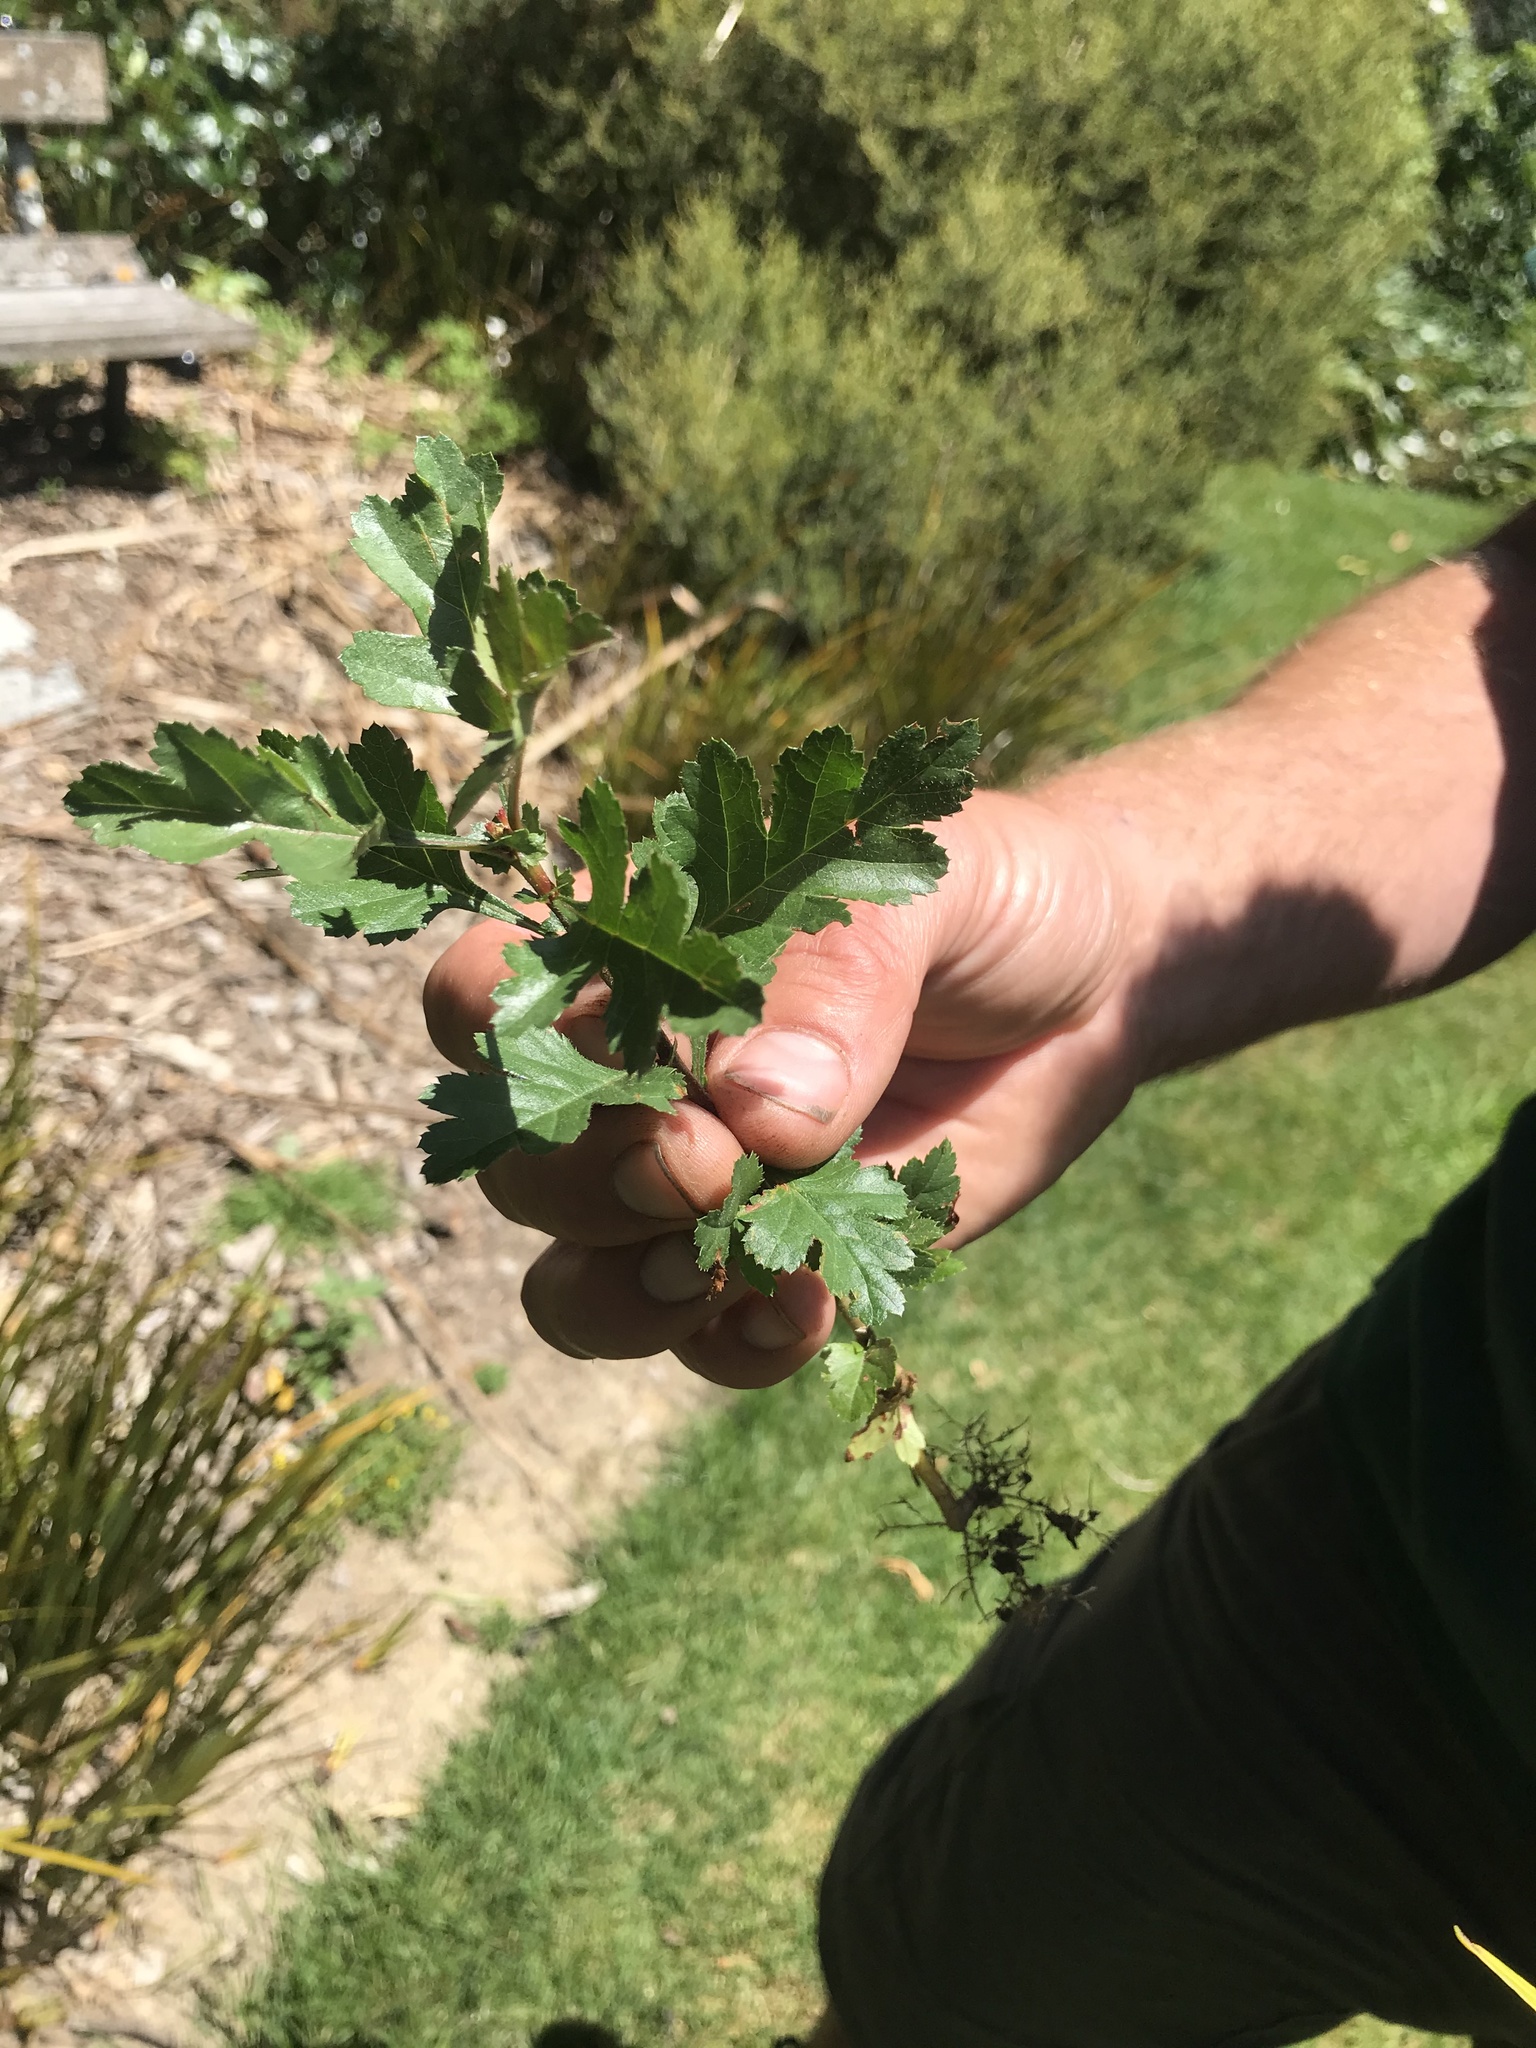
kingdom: Plantae
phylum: Tracheophyta
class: Magnoliopsida
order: Rosales
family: Rosaceae
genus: Crataegus
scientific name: Crataegus monogyna
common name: Hawthorn
